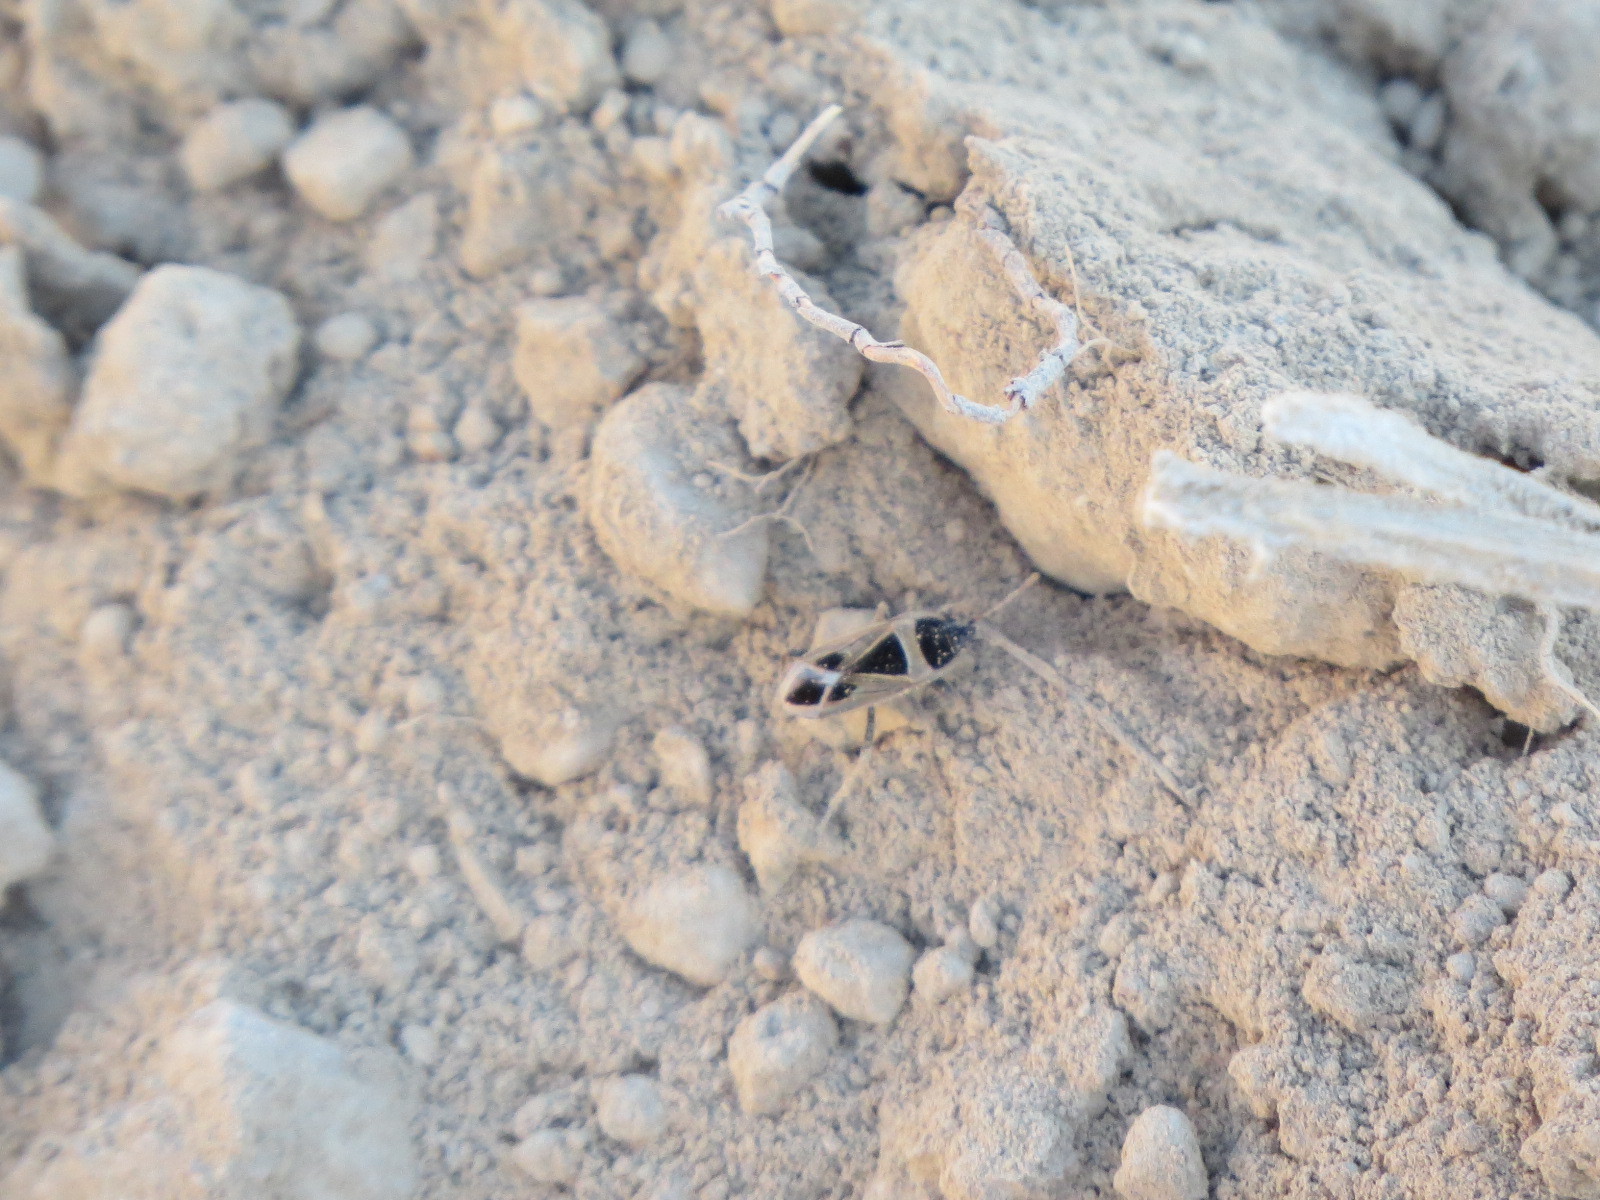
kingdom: Animalia
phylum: Arthropoda
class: Insecta
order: Hemiptera
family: Rhyparochromidae
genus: Xanthochilus
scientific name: Xanthochilus saturnius
